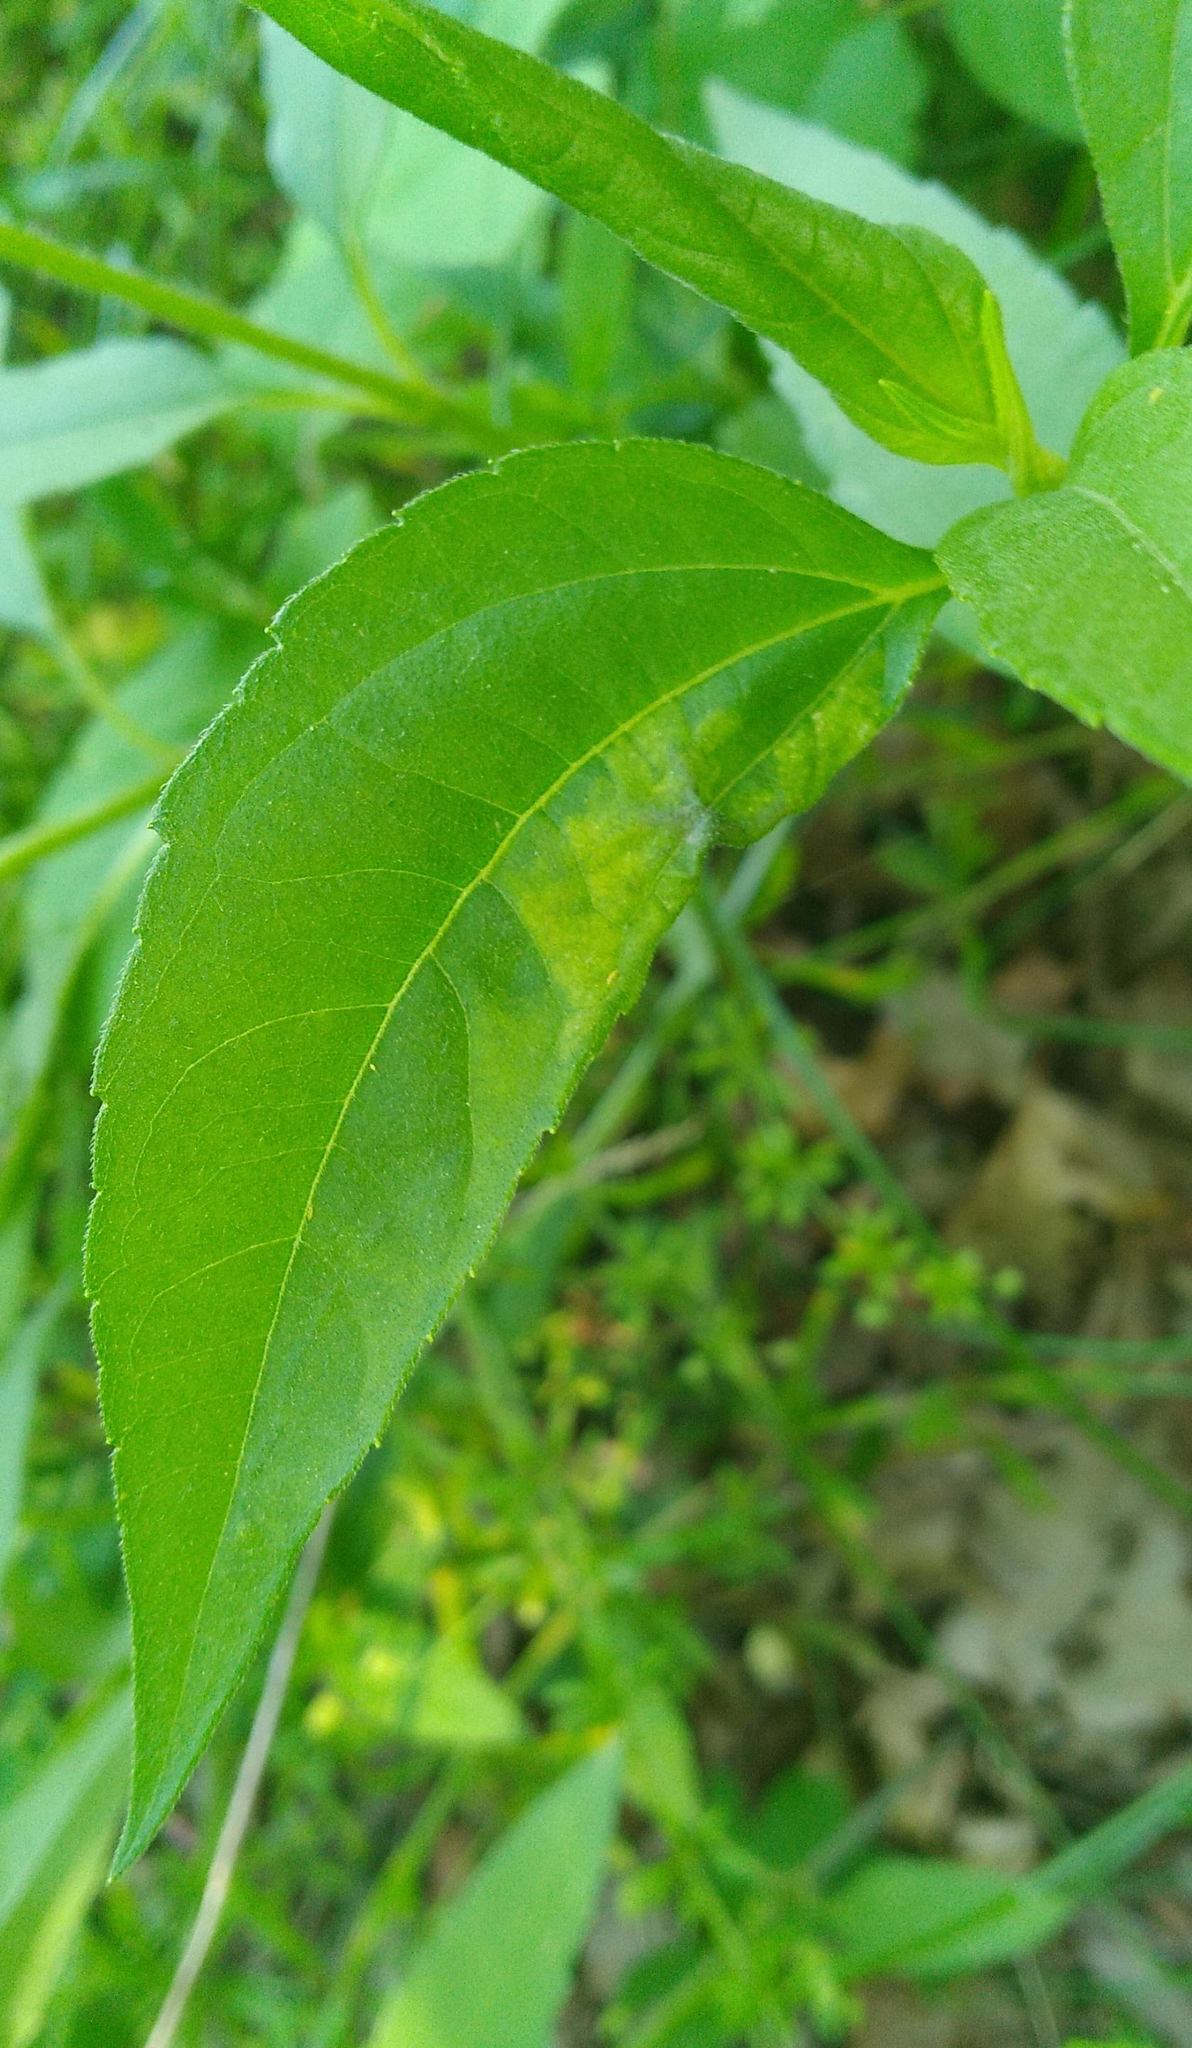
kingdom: Animalia
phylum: Arthropoda
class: Insecta
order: Diptera
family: Agromyzidae
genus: Calycomyza
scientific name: Calycomyza platyptera
